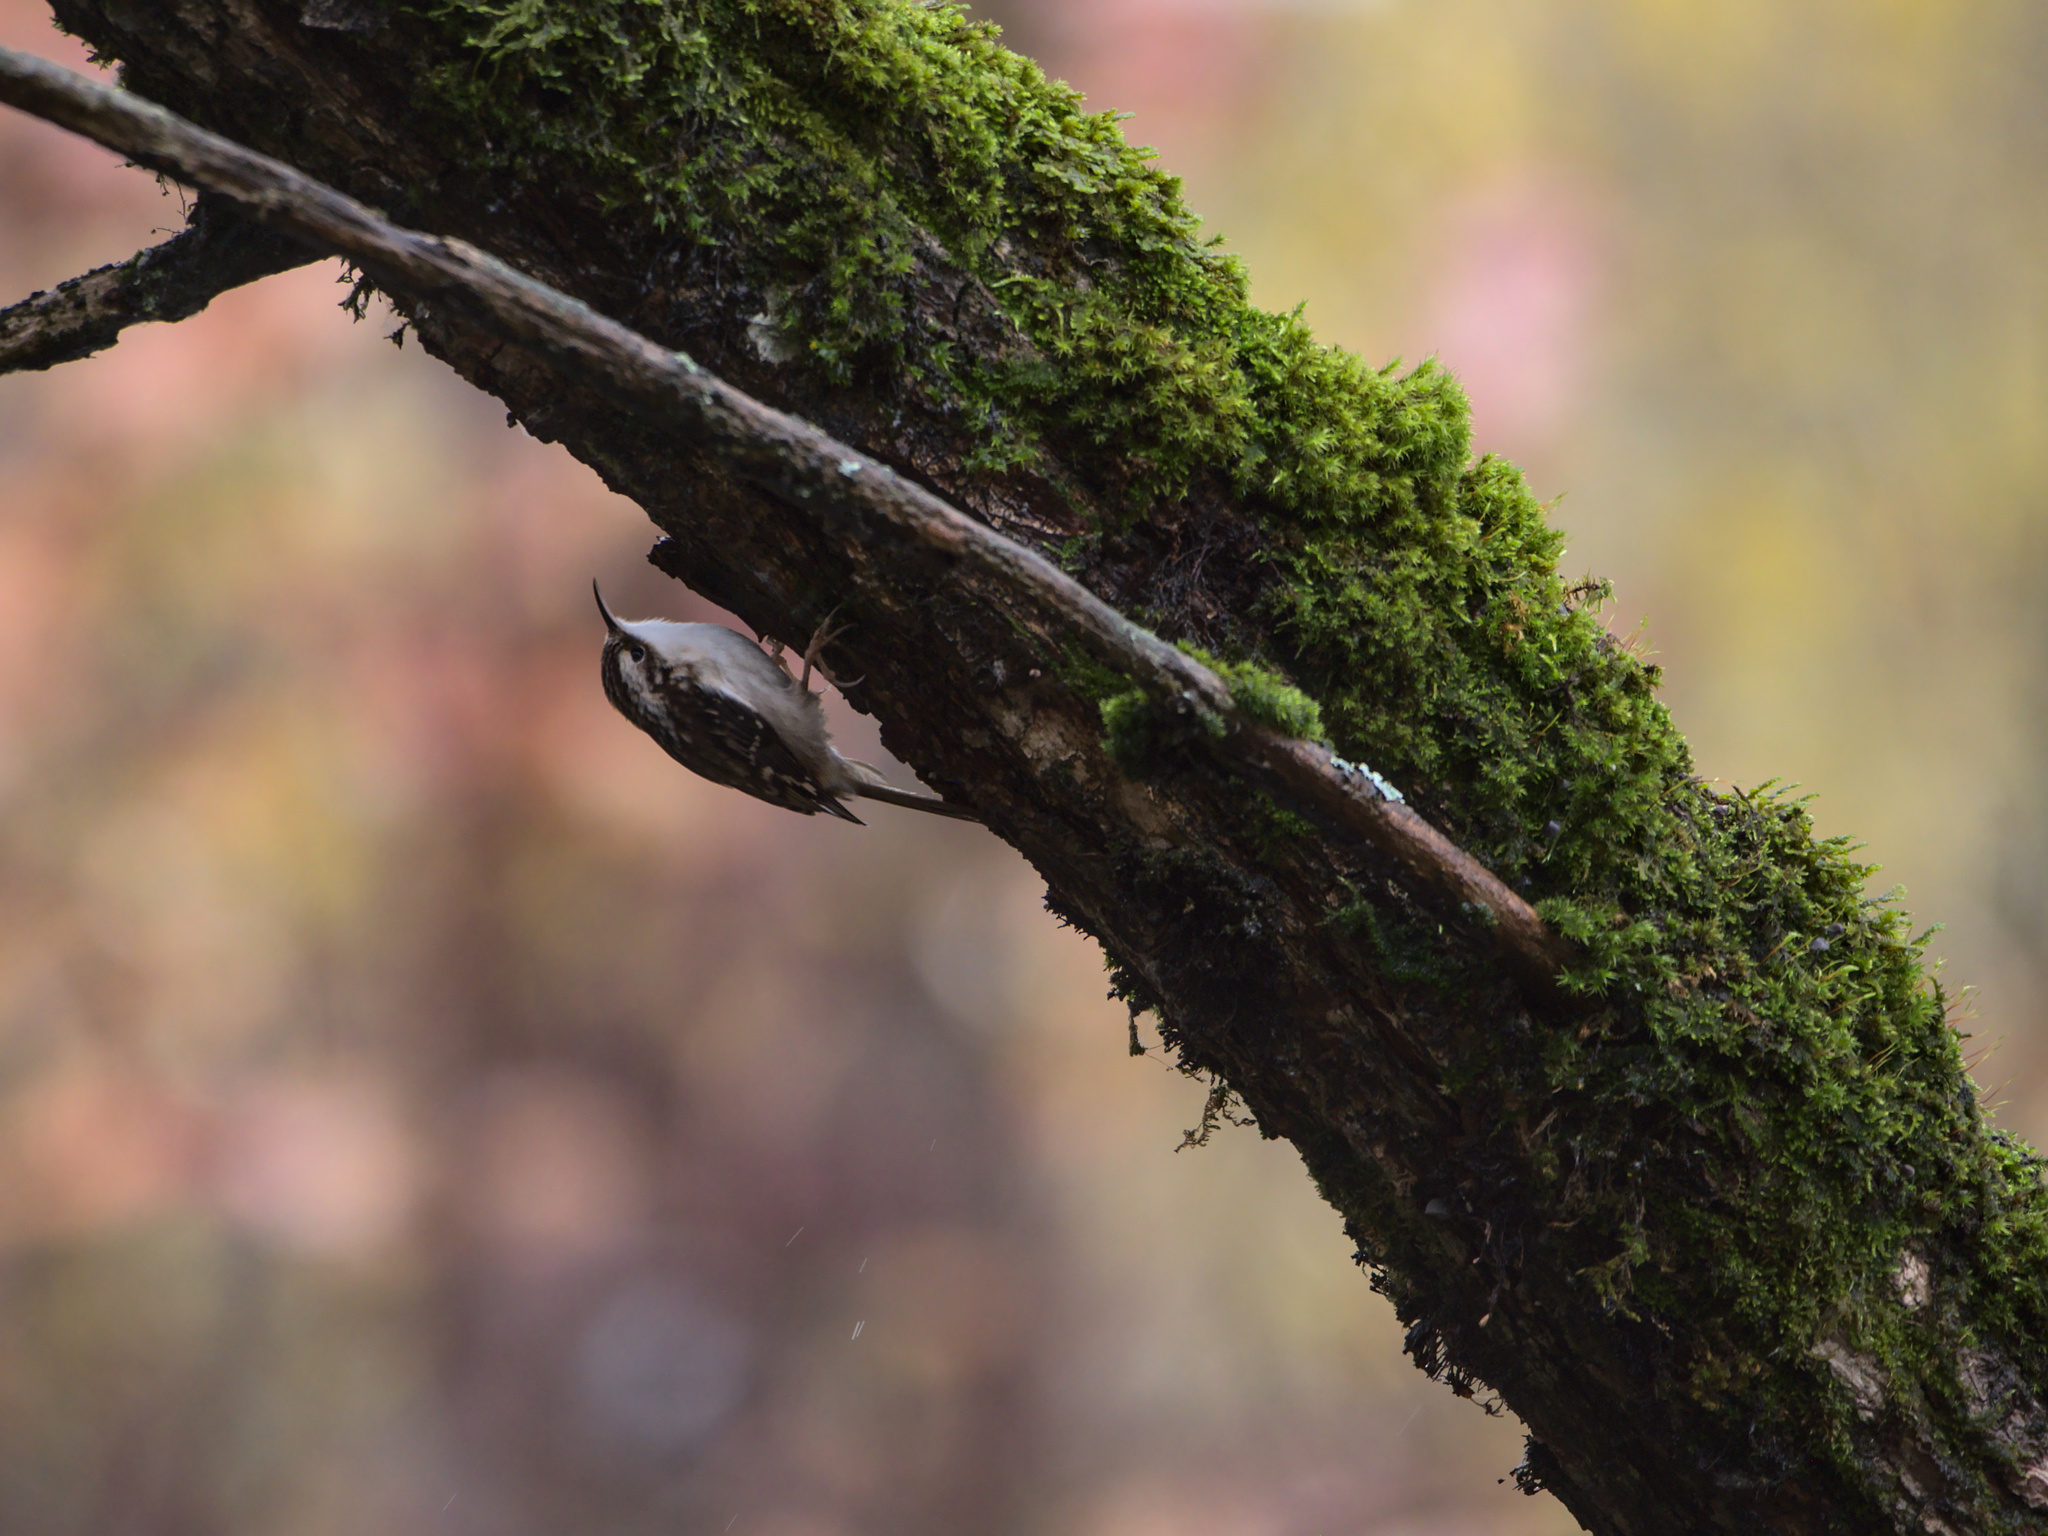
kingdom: Animalia
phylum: Chordata
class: Aves
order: Passeriformes
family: Certhiidae
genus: Certhia
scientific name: Certhia americana
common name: Brown creeper
